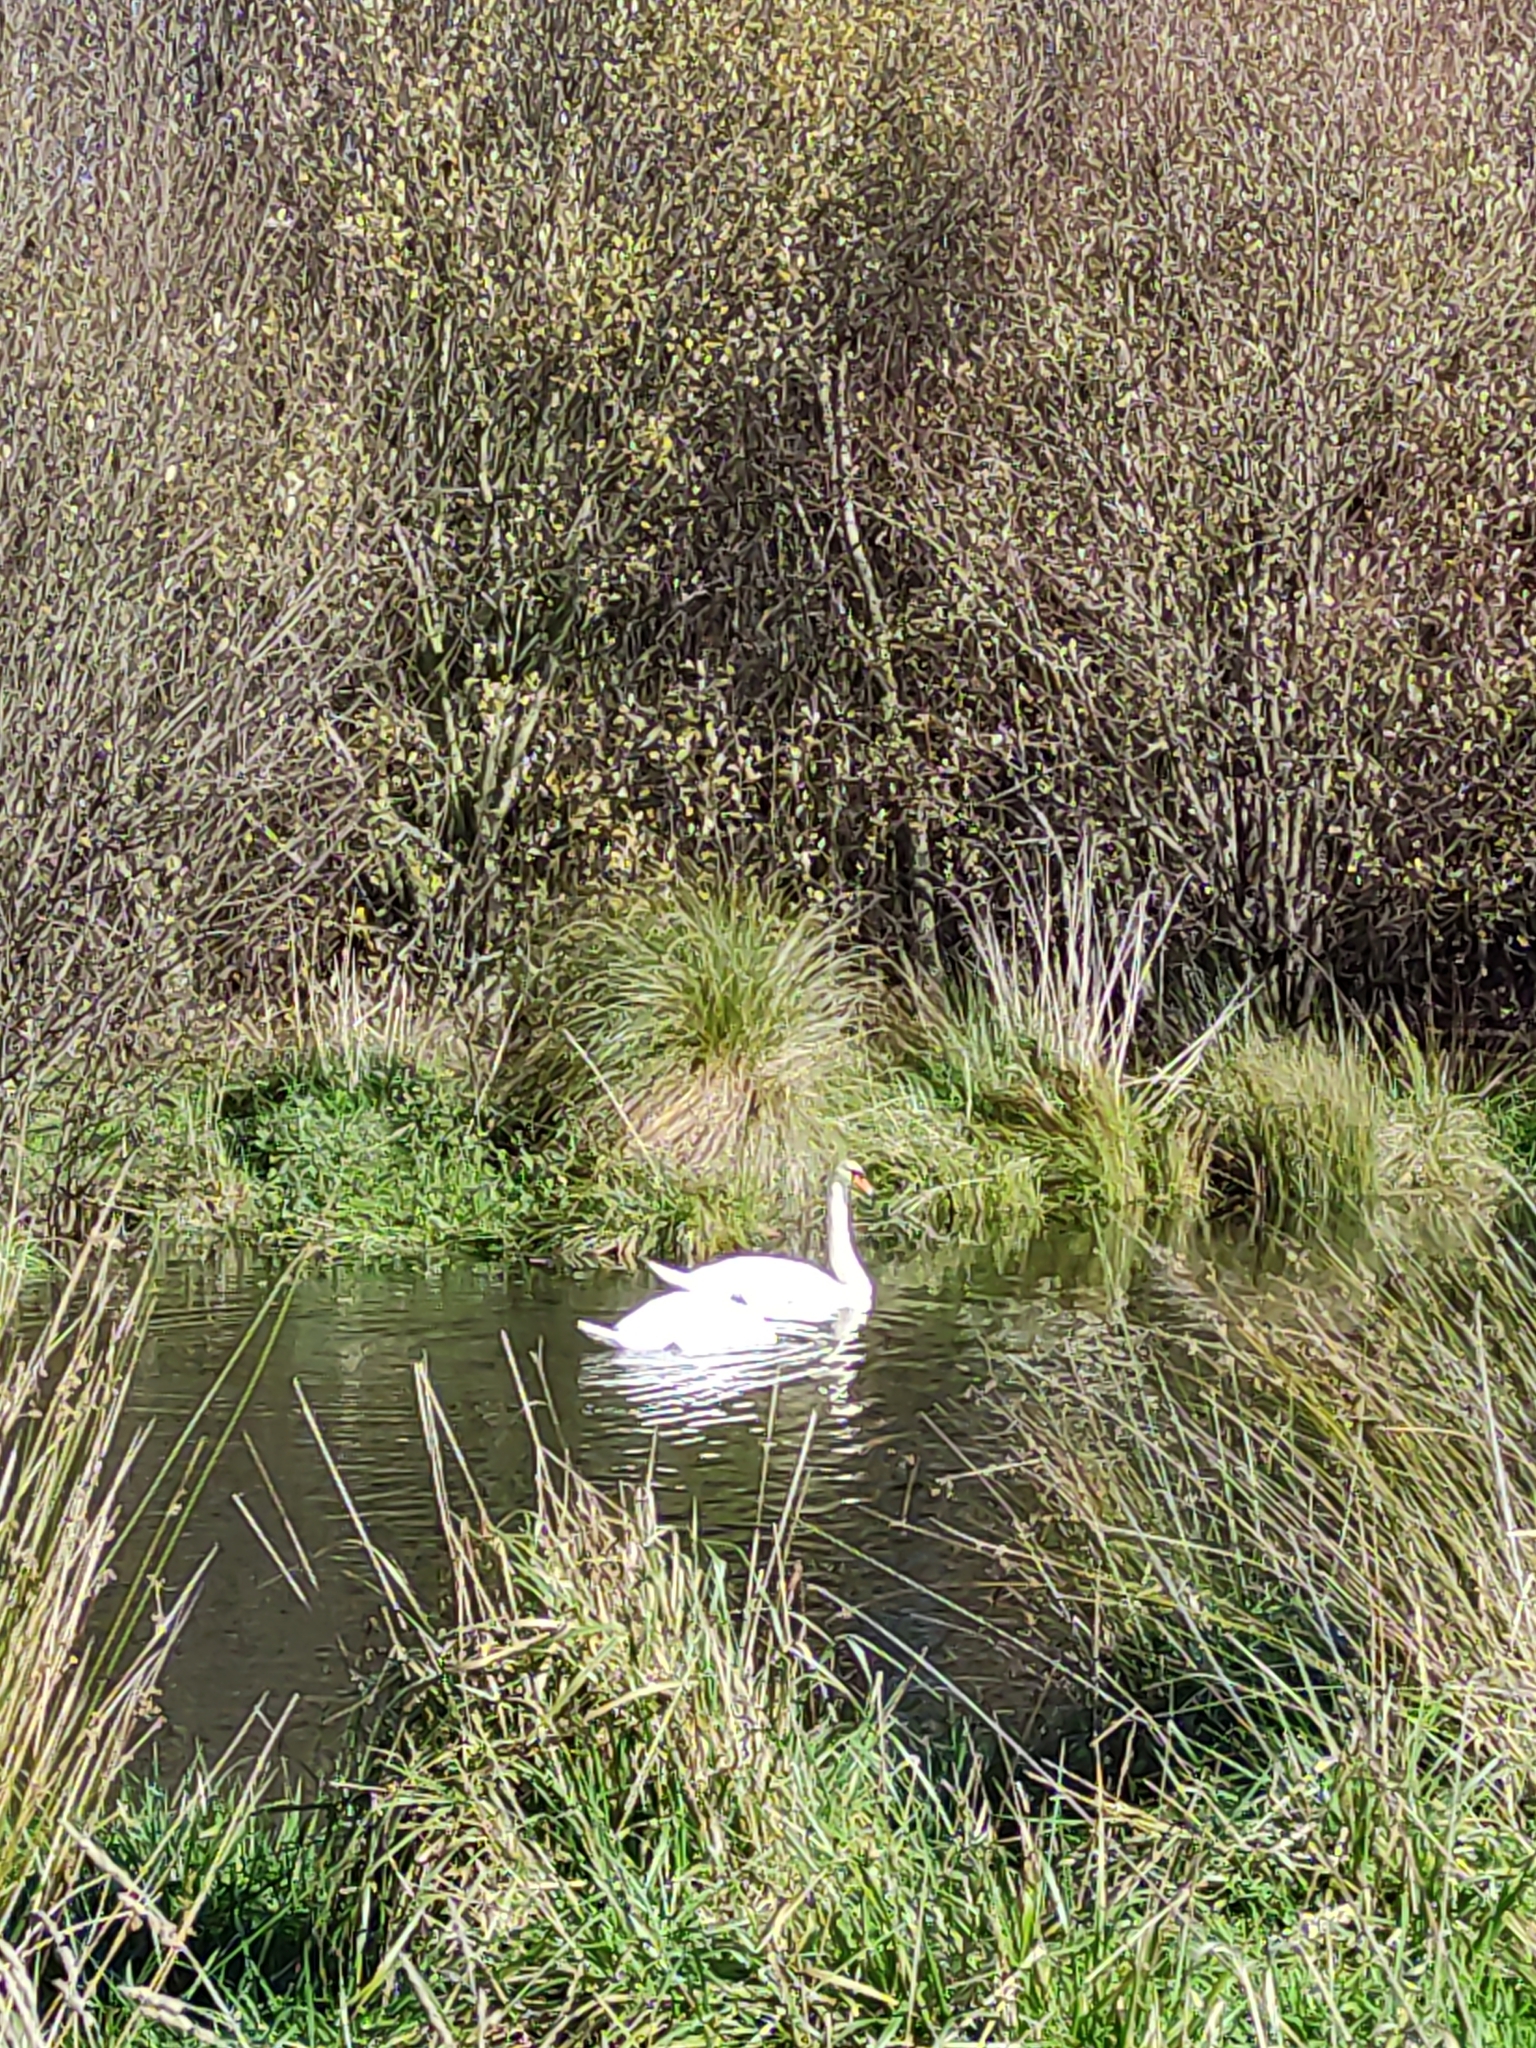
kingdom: Animalia
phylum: Chordata
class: Aves
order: Anseriformes
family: Anatidae
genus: Cygnus
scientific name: Cygnus olor
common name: Mute swan
